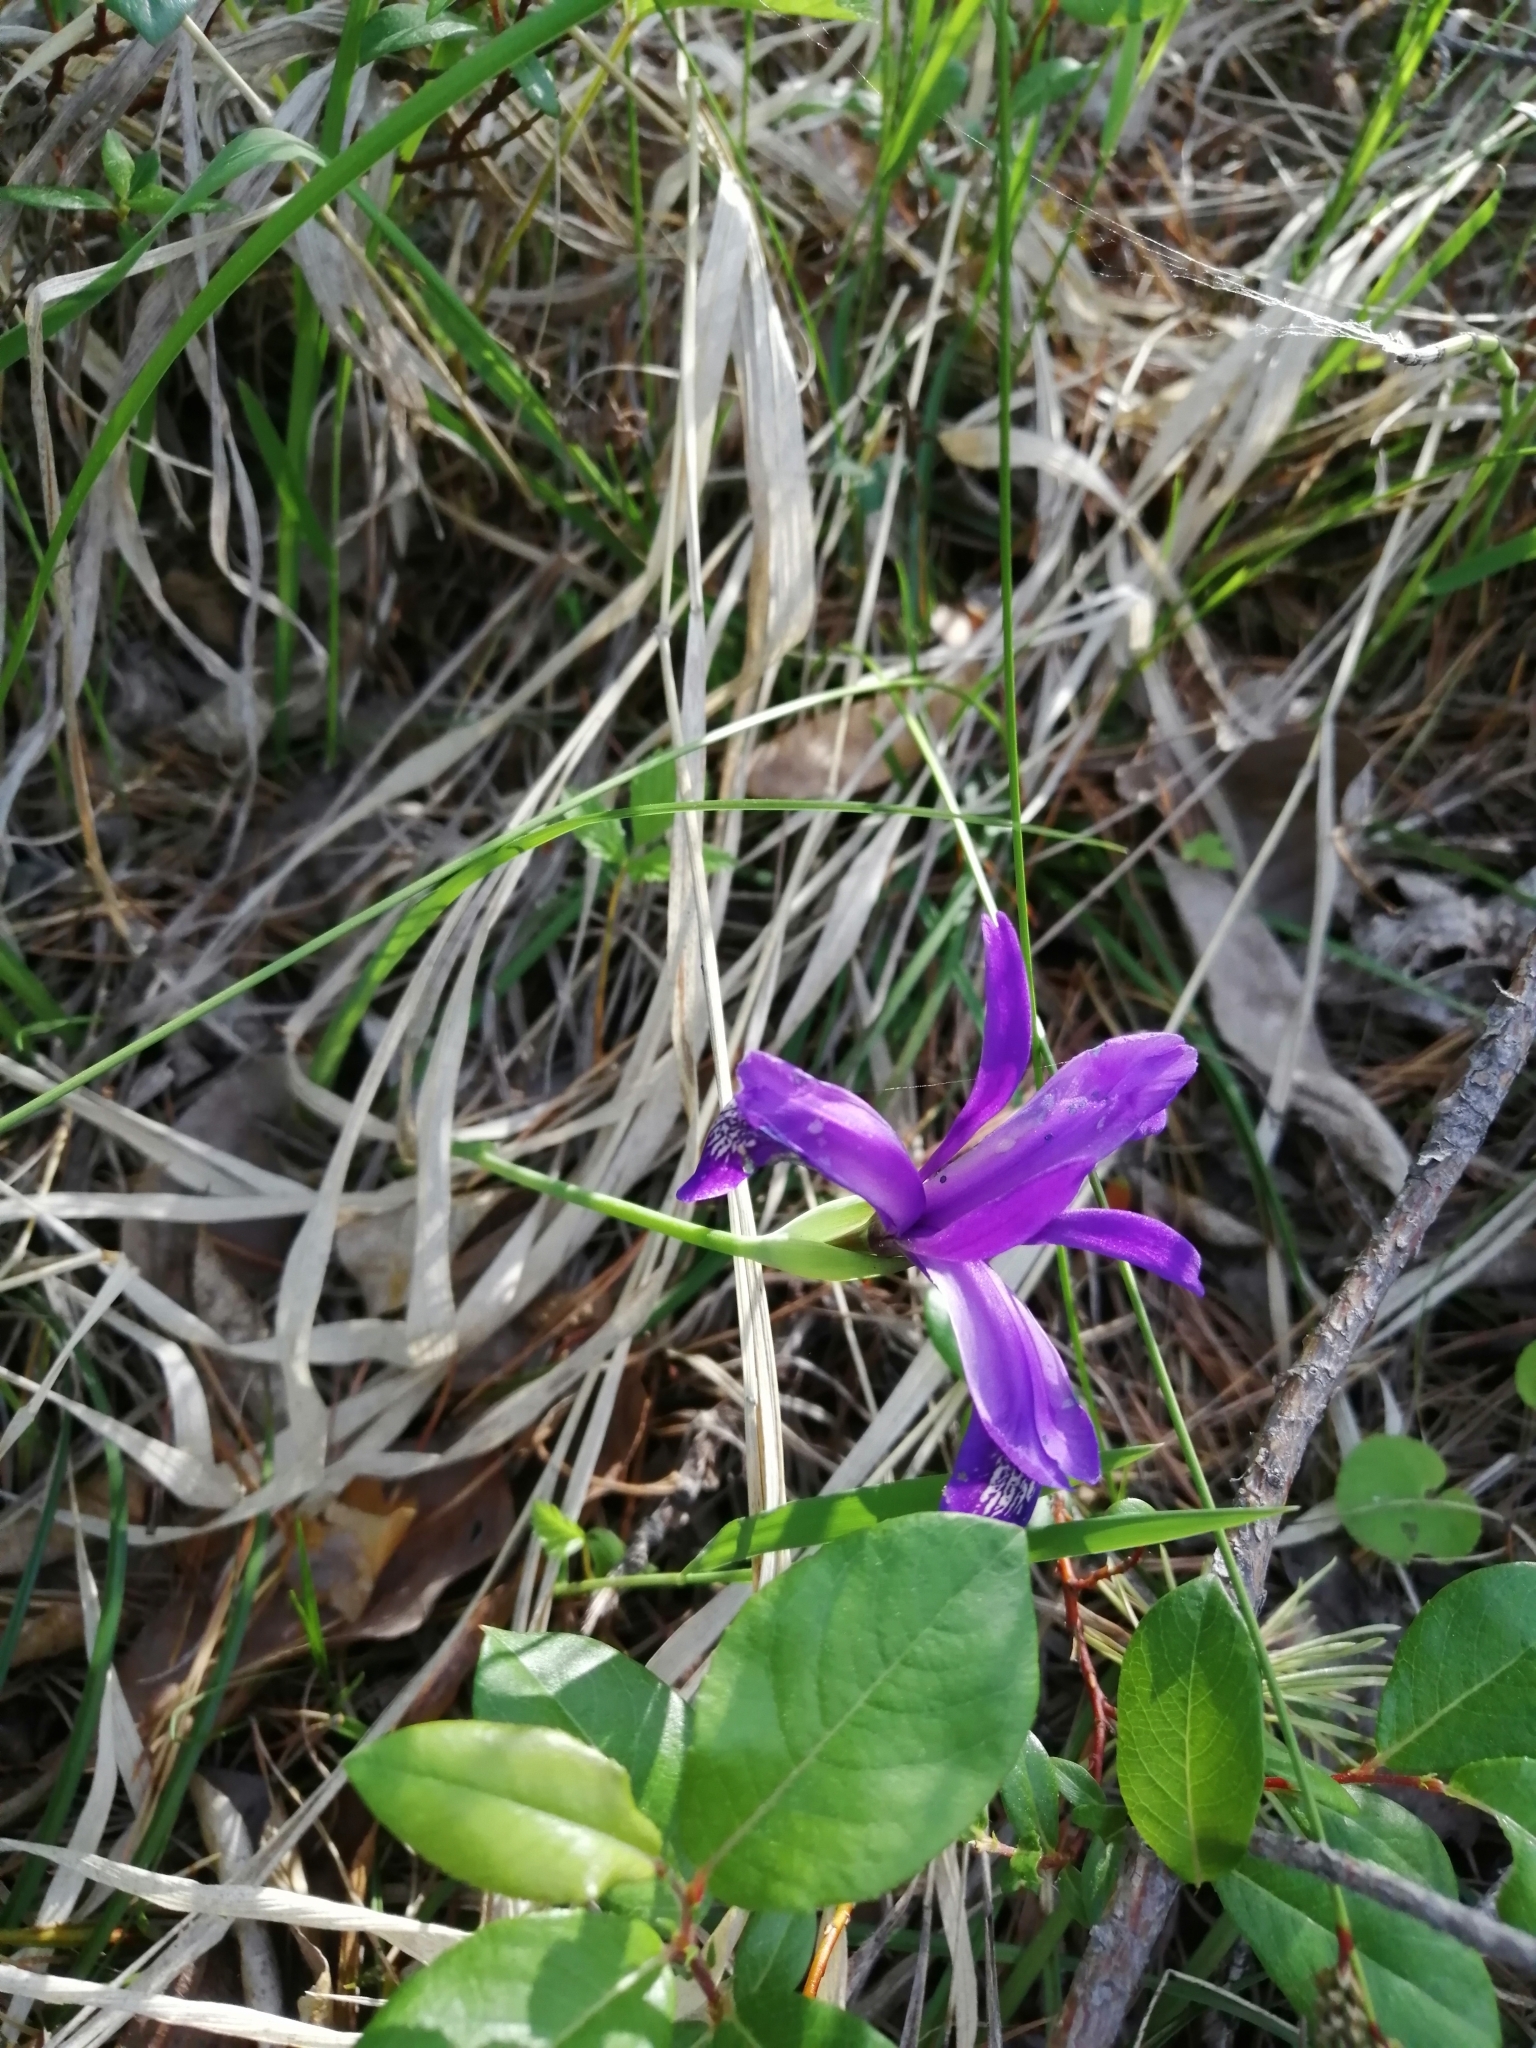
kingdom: Plantae
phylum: Tracheophyta
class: Liliopsida
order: Asparagales
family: Iridaceae
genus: Iris
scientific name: Iris ruthenica
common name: Purple-bract iris
